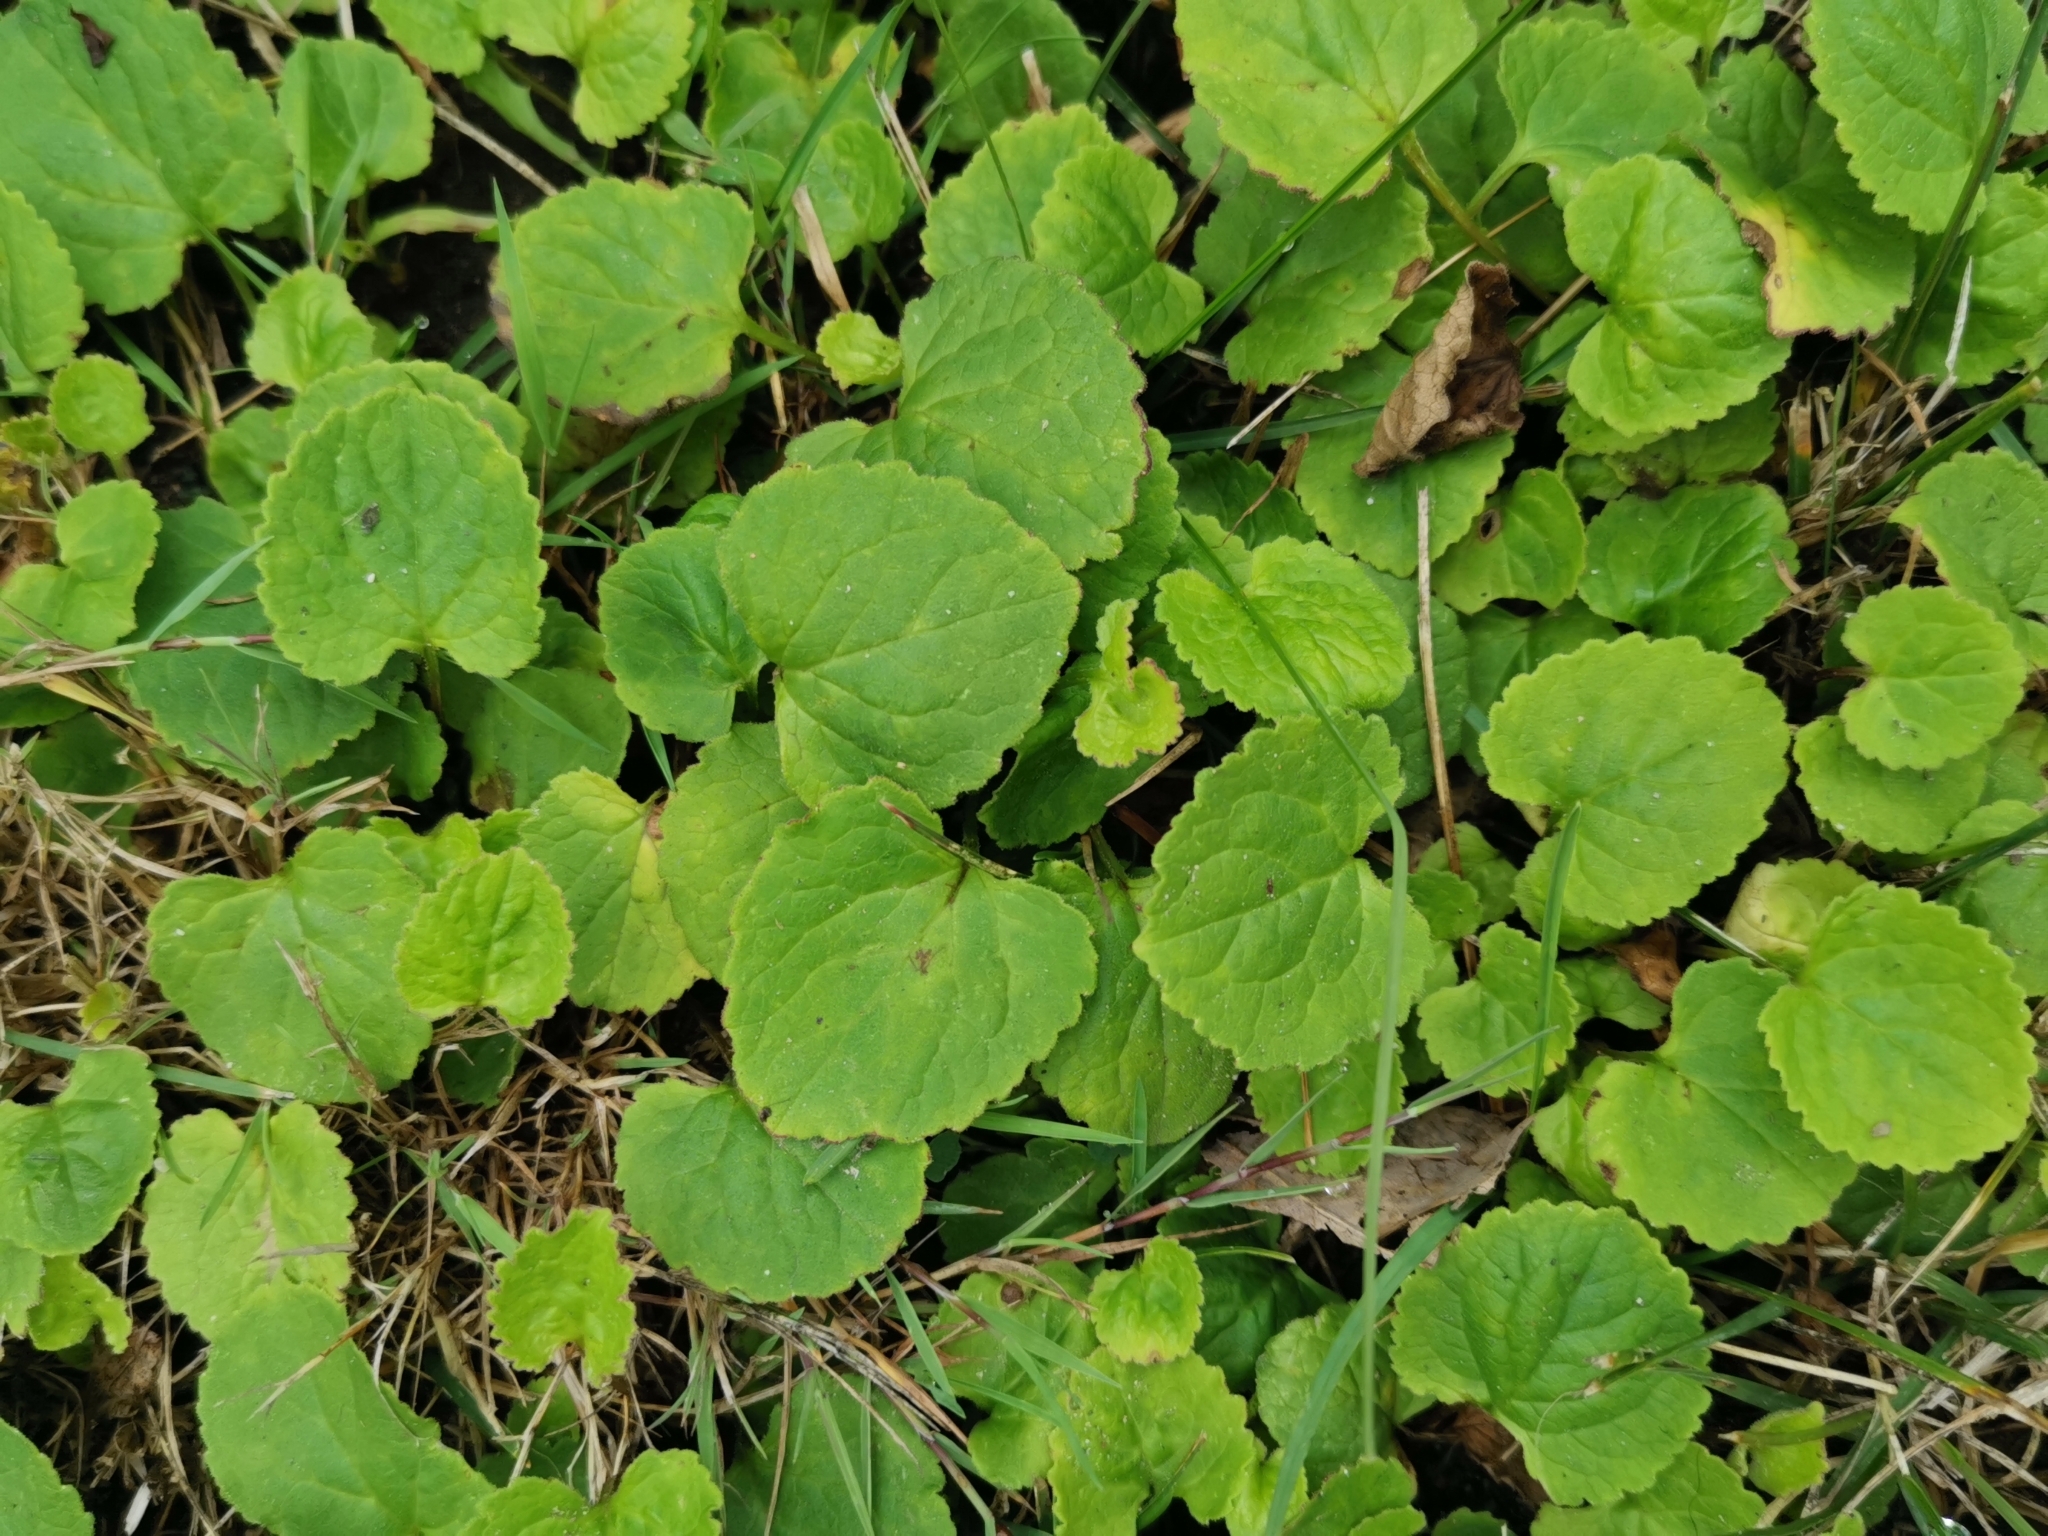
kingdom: Plantae
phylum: Tracheophyta
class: Magnoliopsida
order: Asterales
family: Campanulaceae
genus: Campanula
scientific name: Campanula rapunculoides
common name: Creeping bellflower
